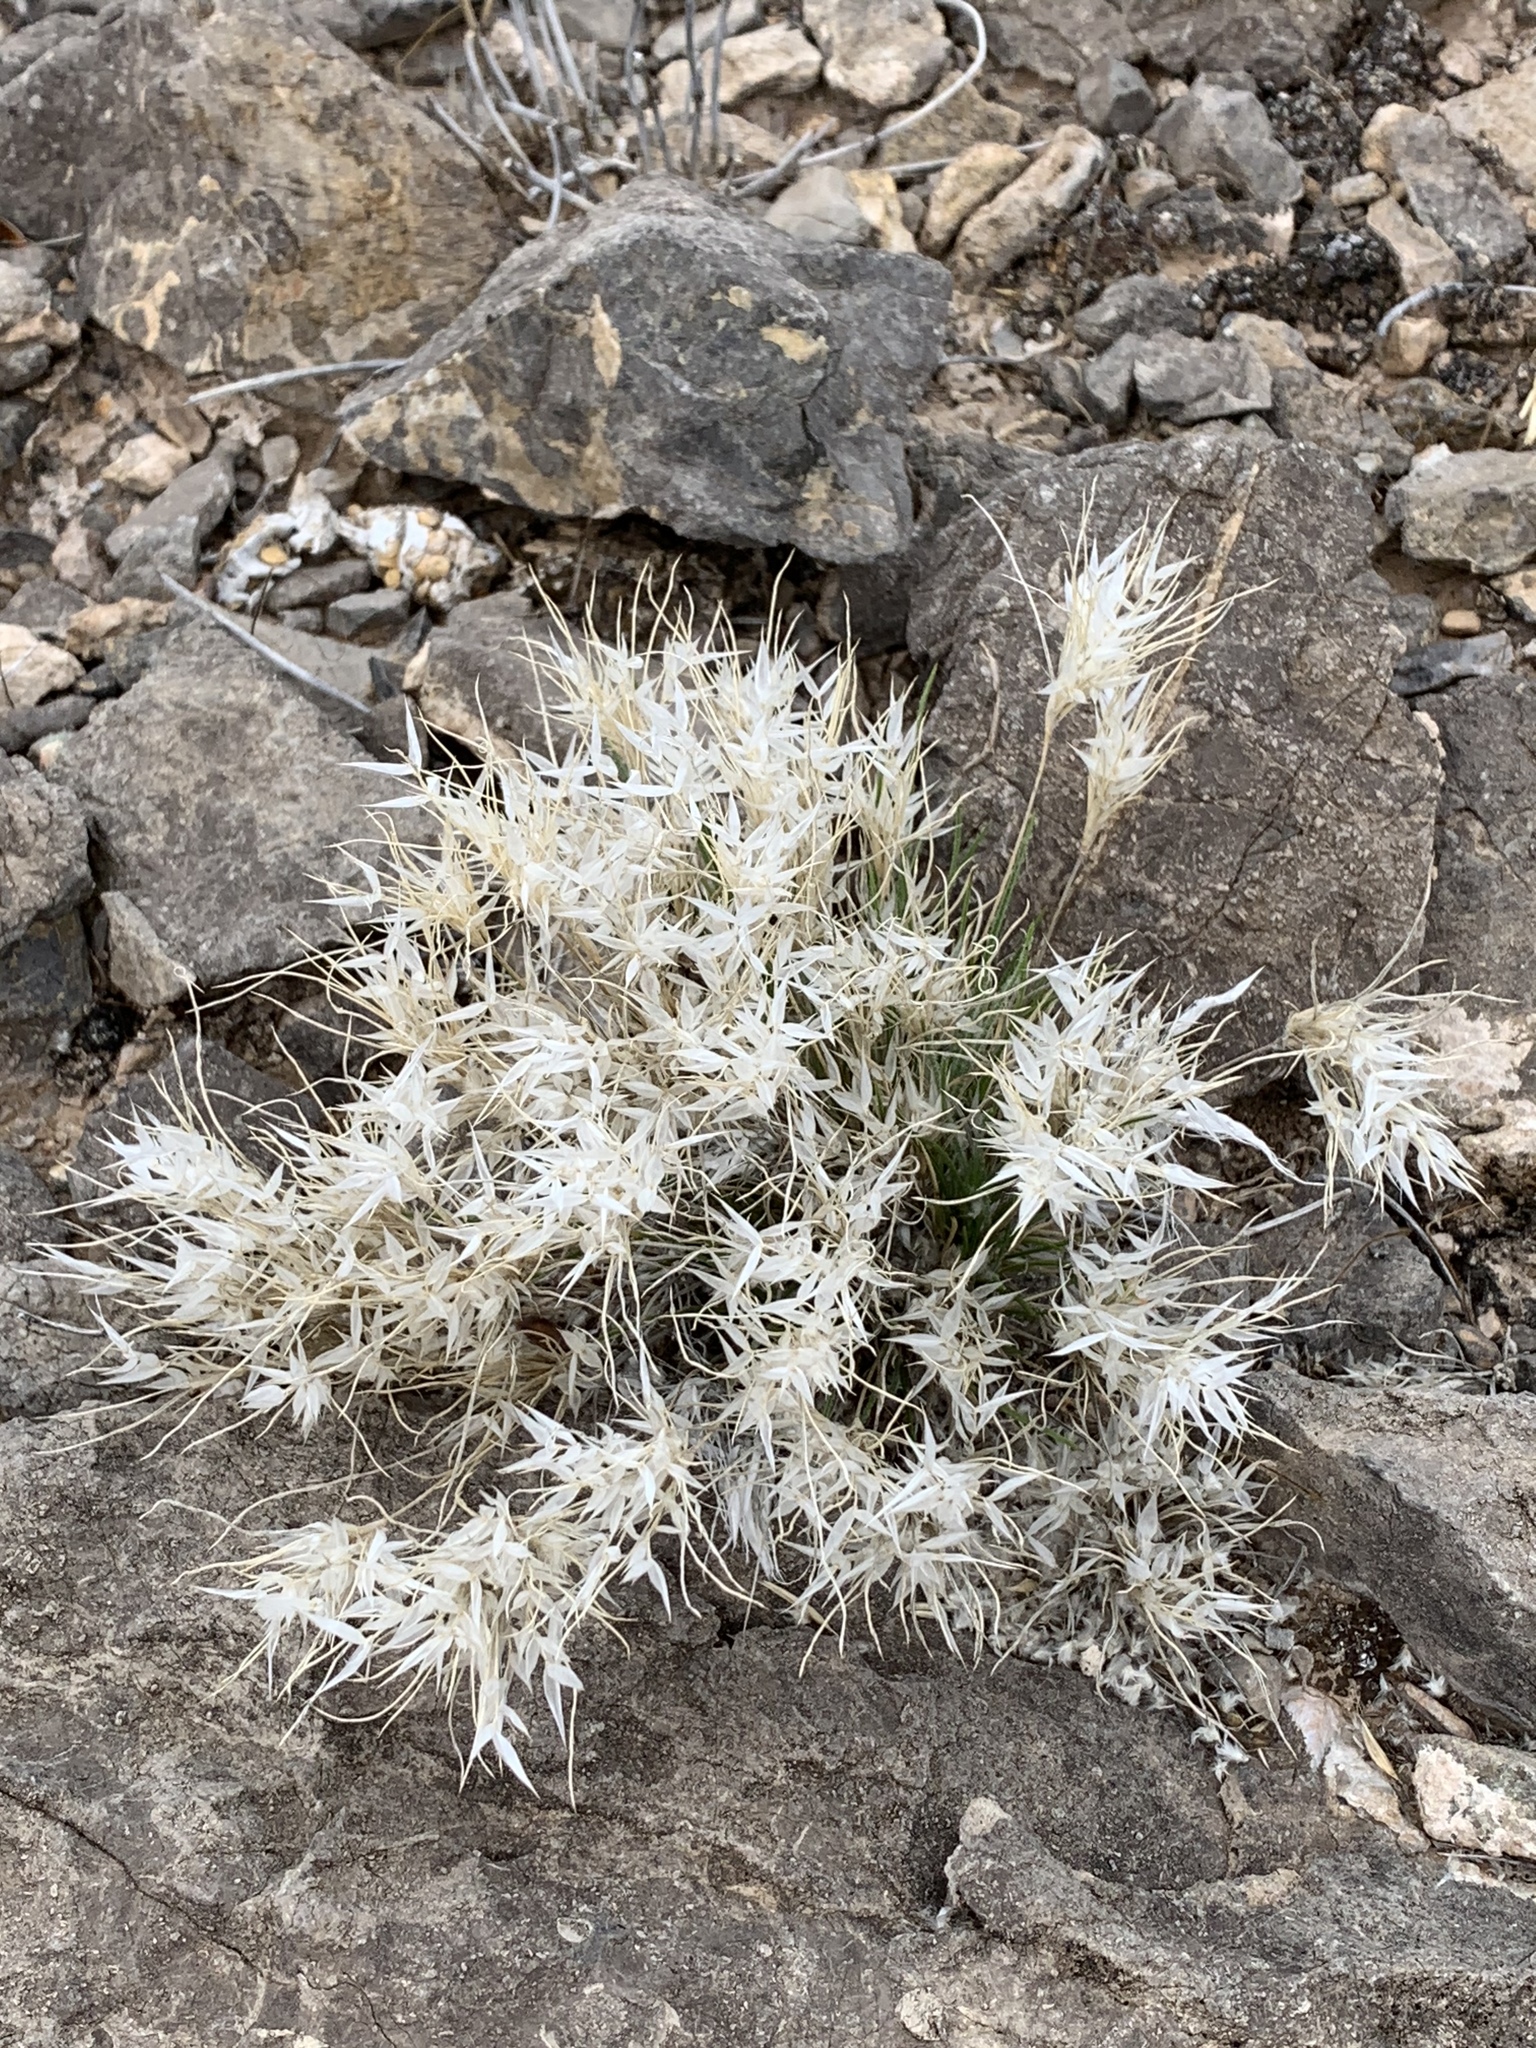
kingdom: Plantae
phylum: Tracheophyta
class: Liliopsida
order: Poales
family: Poaceae
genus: Dasyochloa
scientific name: Dasyochloa pulchella
